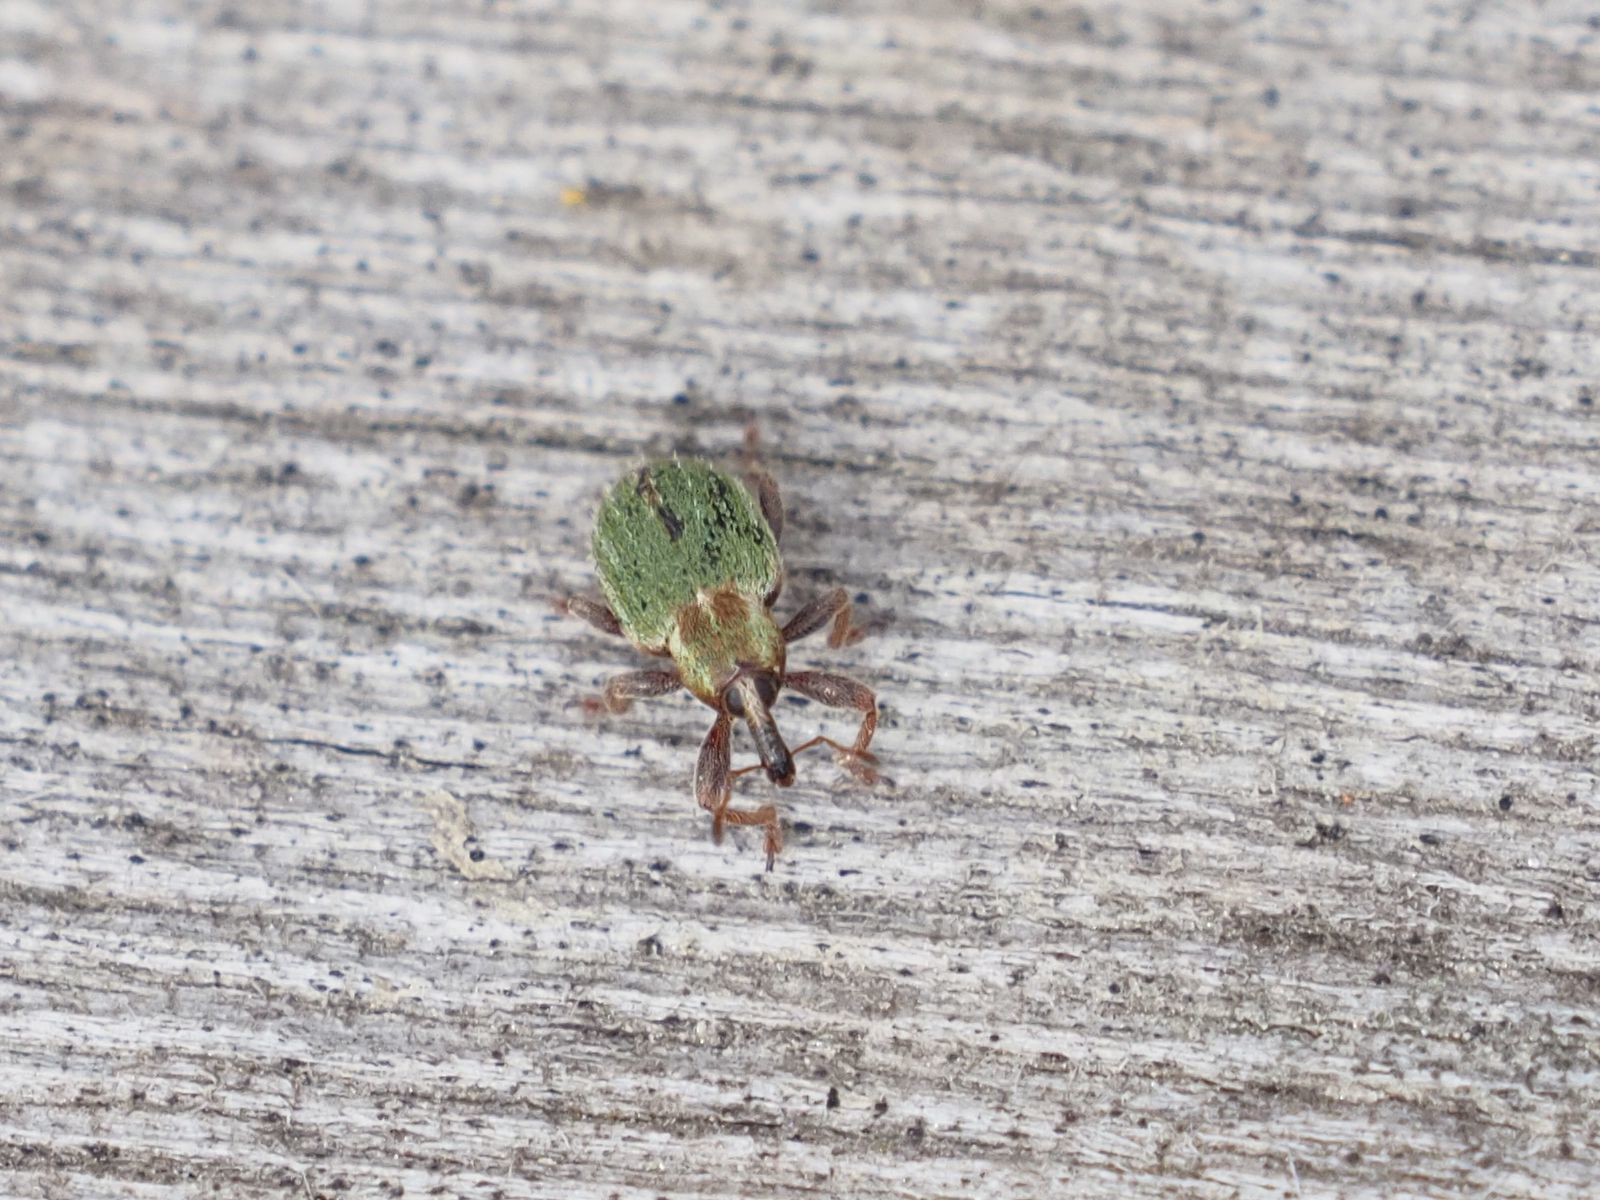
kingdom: Animalia
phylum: Arthropoda
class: Insecta
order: Coleoptera
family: Curculionidae
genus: Hypera
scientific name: Hypera nigrirostris
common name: Black-beaked green weevil
